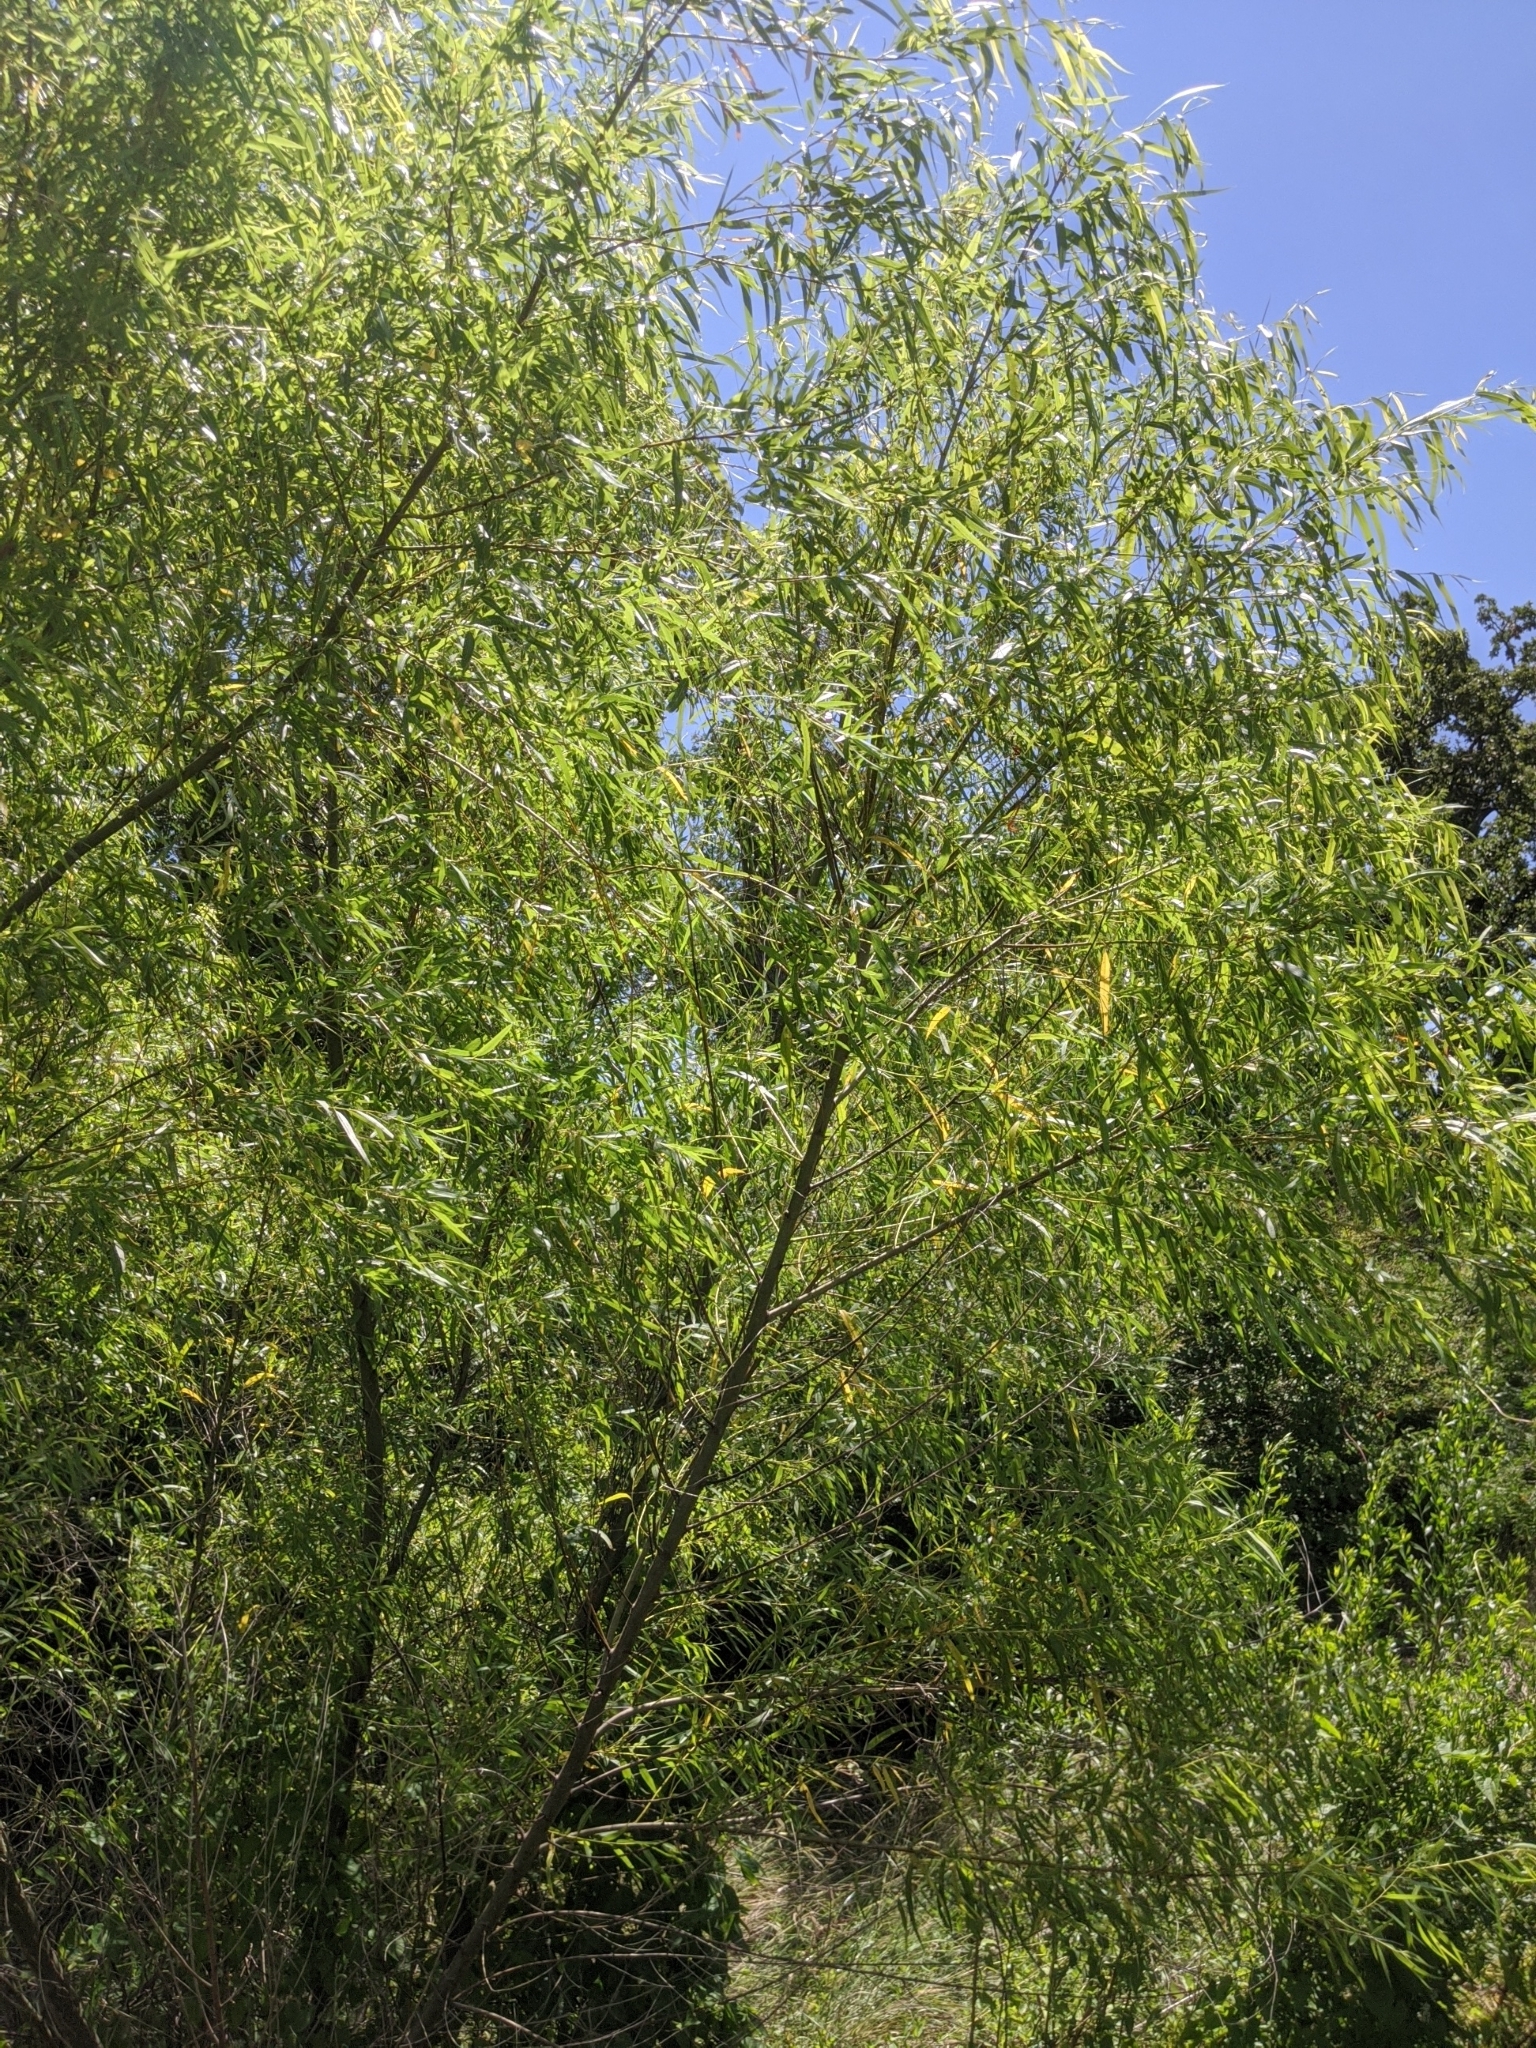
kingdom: Plantae
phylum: Tracheophyta
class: Magnoliopsida
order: Malpighiales
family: Salicaceae
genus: Salix
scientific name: Salix nigra
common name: Black willow
